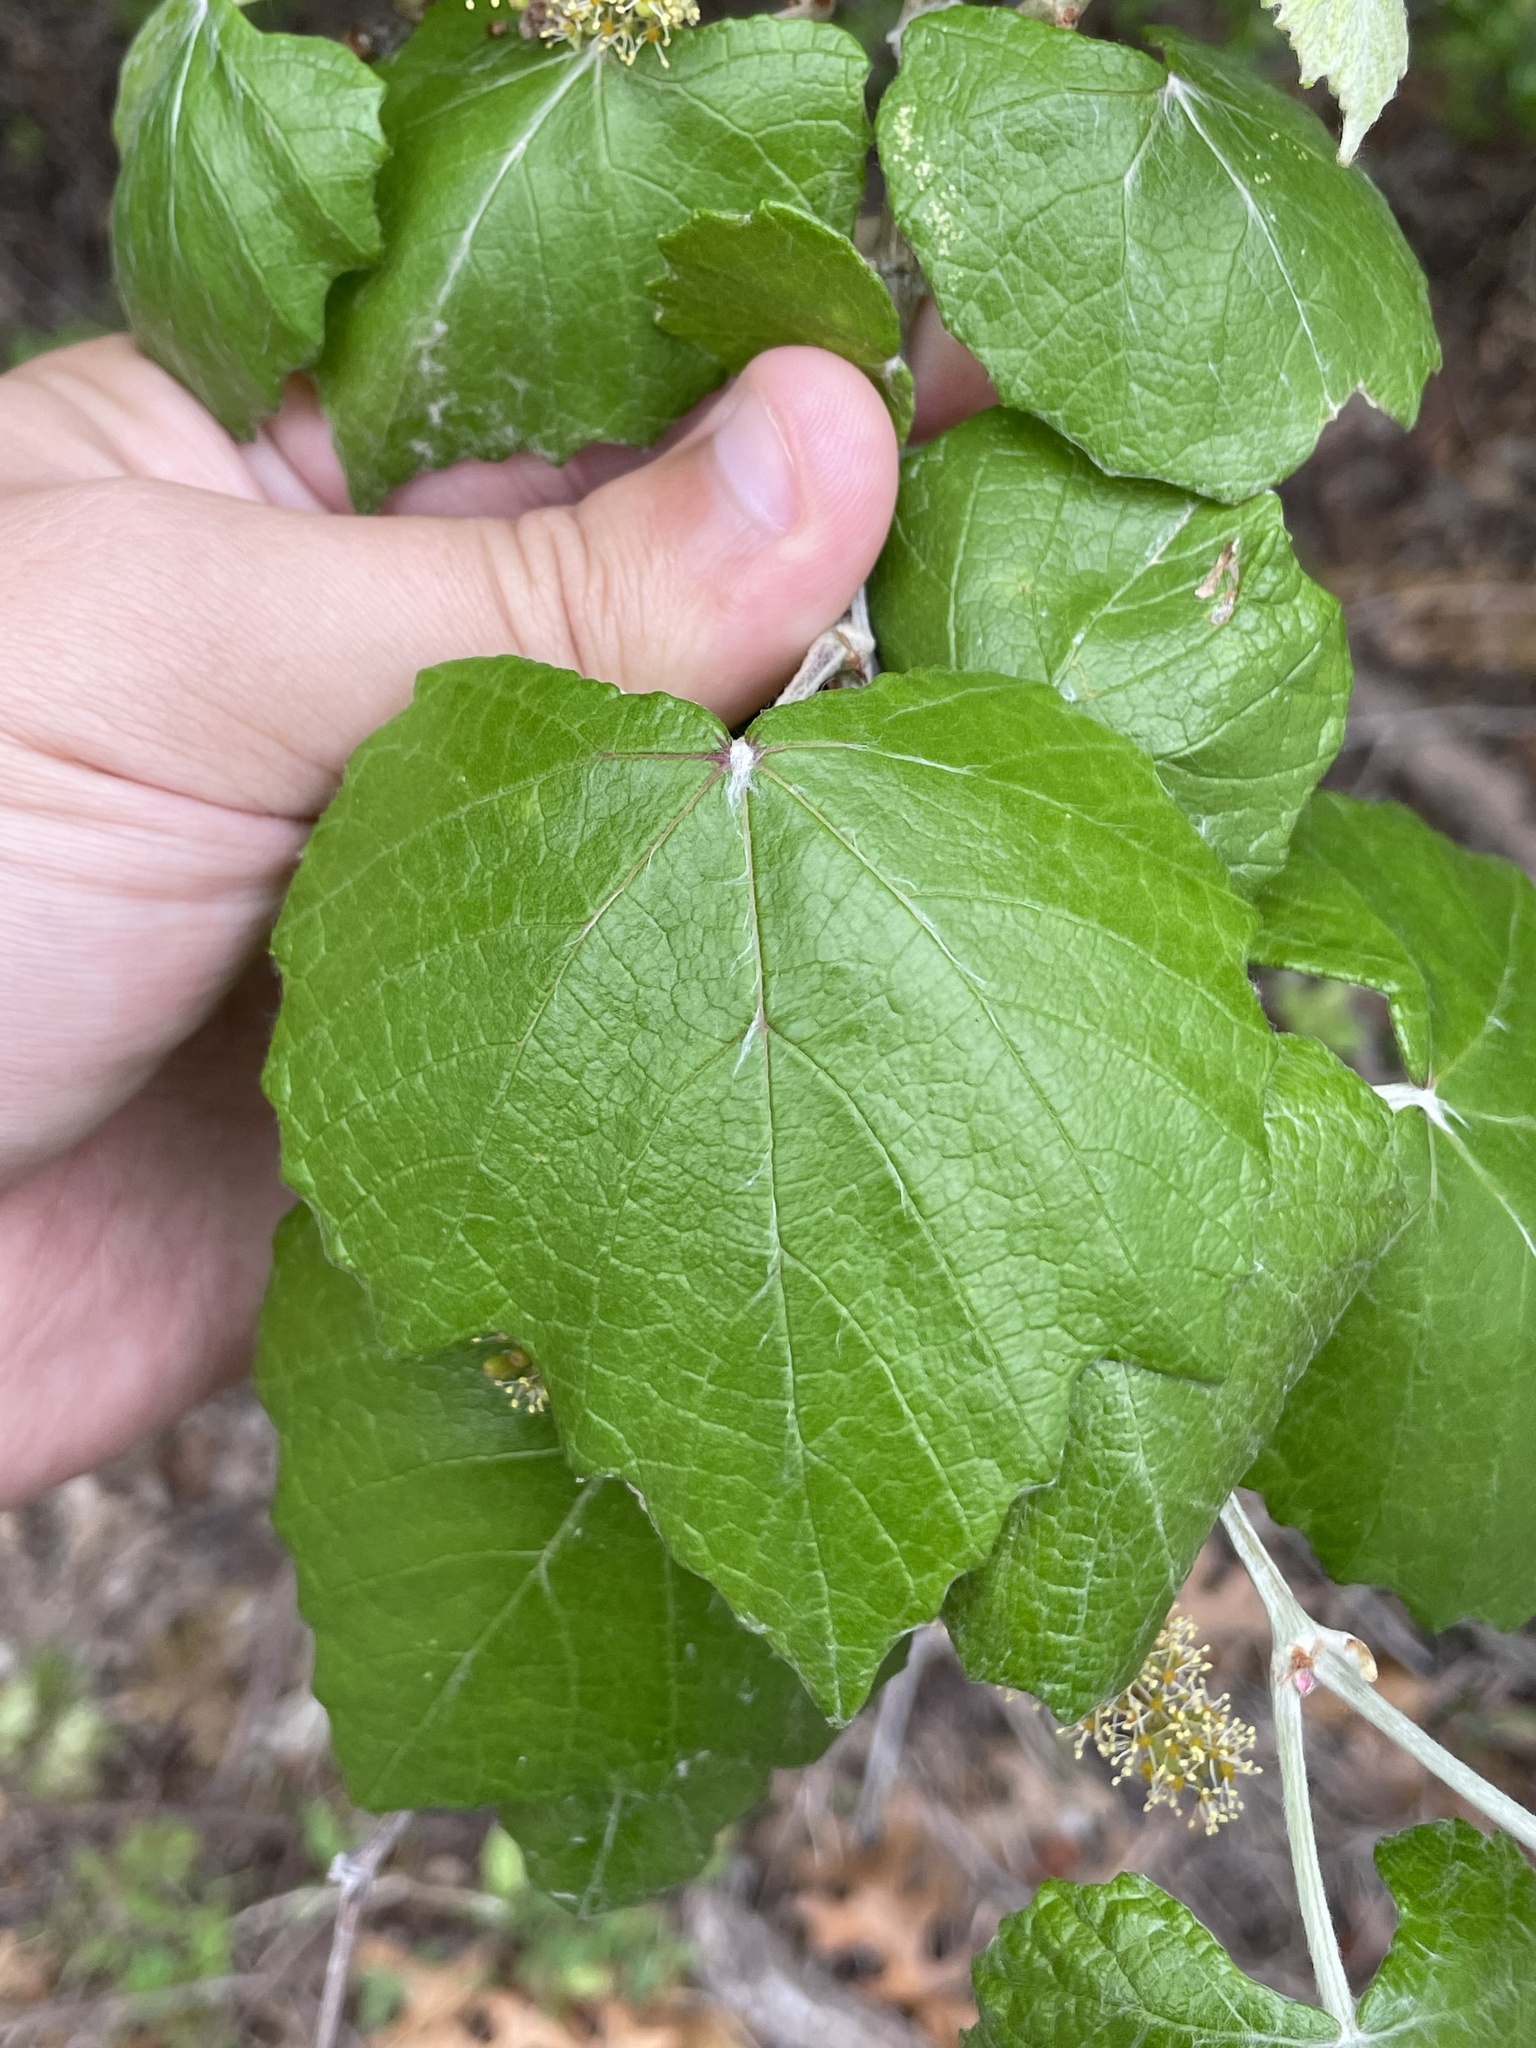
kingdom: Plantae
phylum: Tracheophyta
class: Magnoliopsida
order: Vitales
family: Vitaceae
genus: Vitis
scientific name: Vitis mustangensis
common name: Mustang grape
